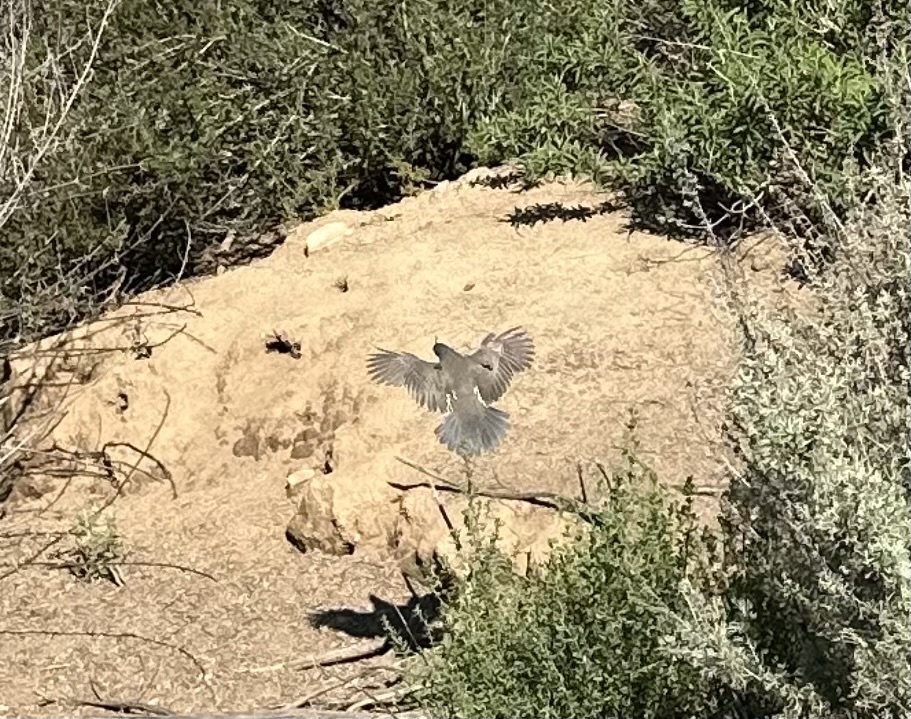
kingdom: Animalia
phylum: Chordata
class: Aves
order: Galliformes
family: Odontophoridae
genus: Callipepla
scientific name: Callipepla californica
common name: California quail
